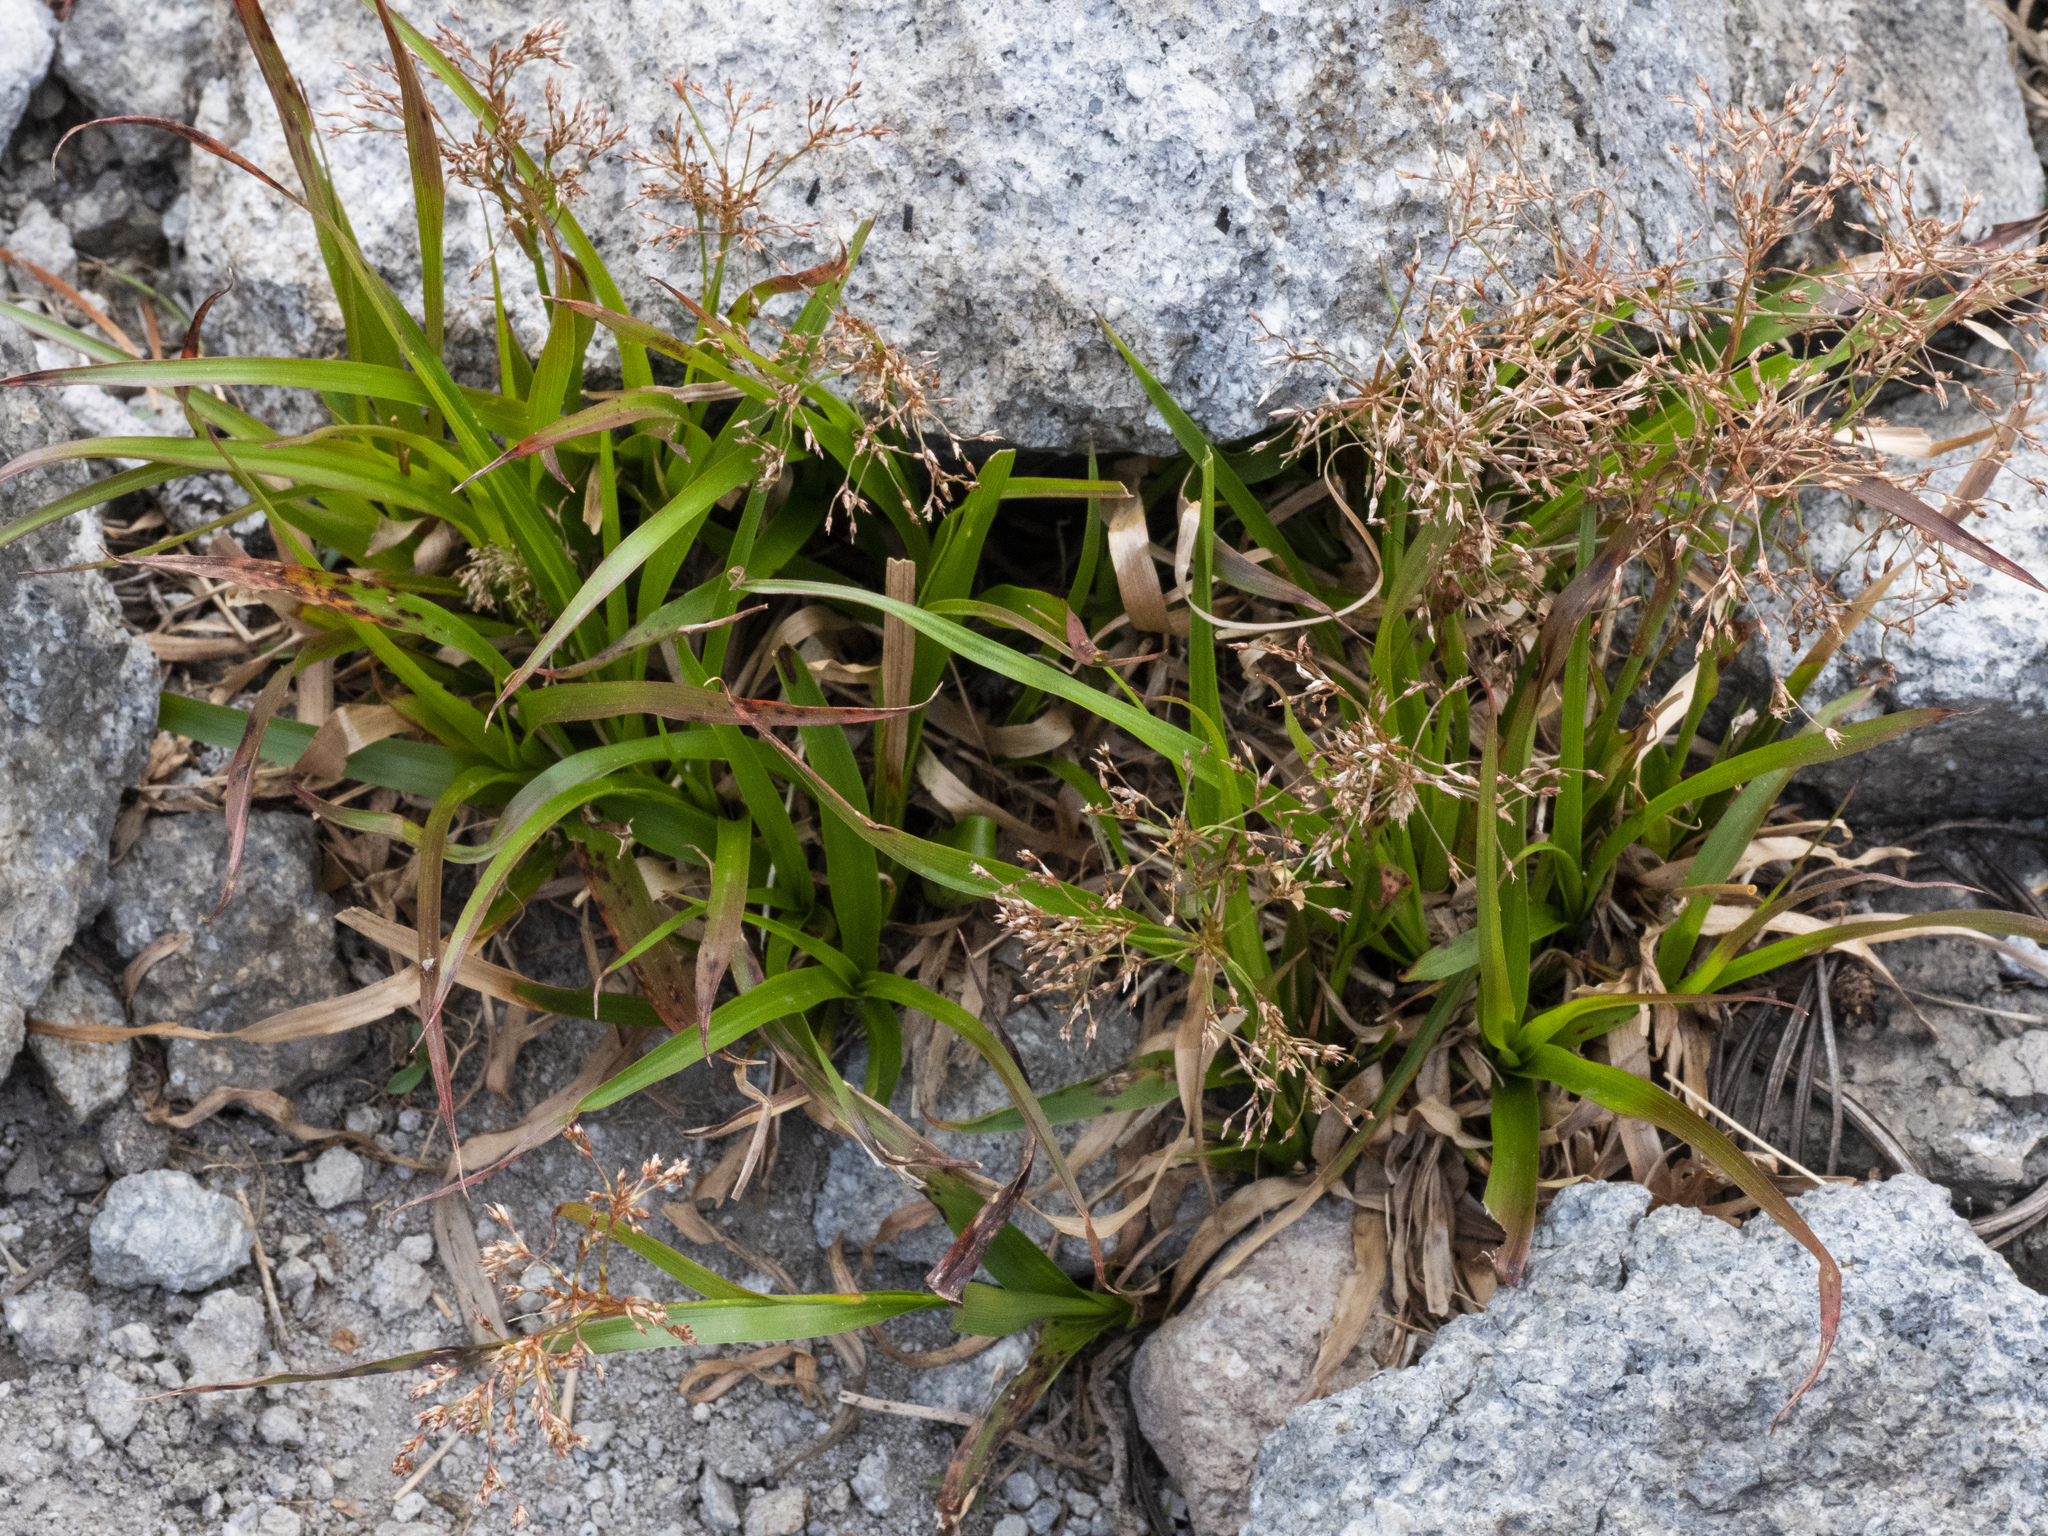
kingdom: Plantae
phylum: Tracheophyta
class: Liliopsida
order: Poales
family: Juncaceae
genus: Luzula
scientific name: Luzula divaricata
